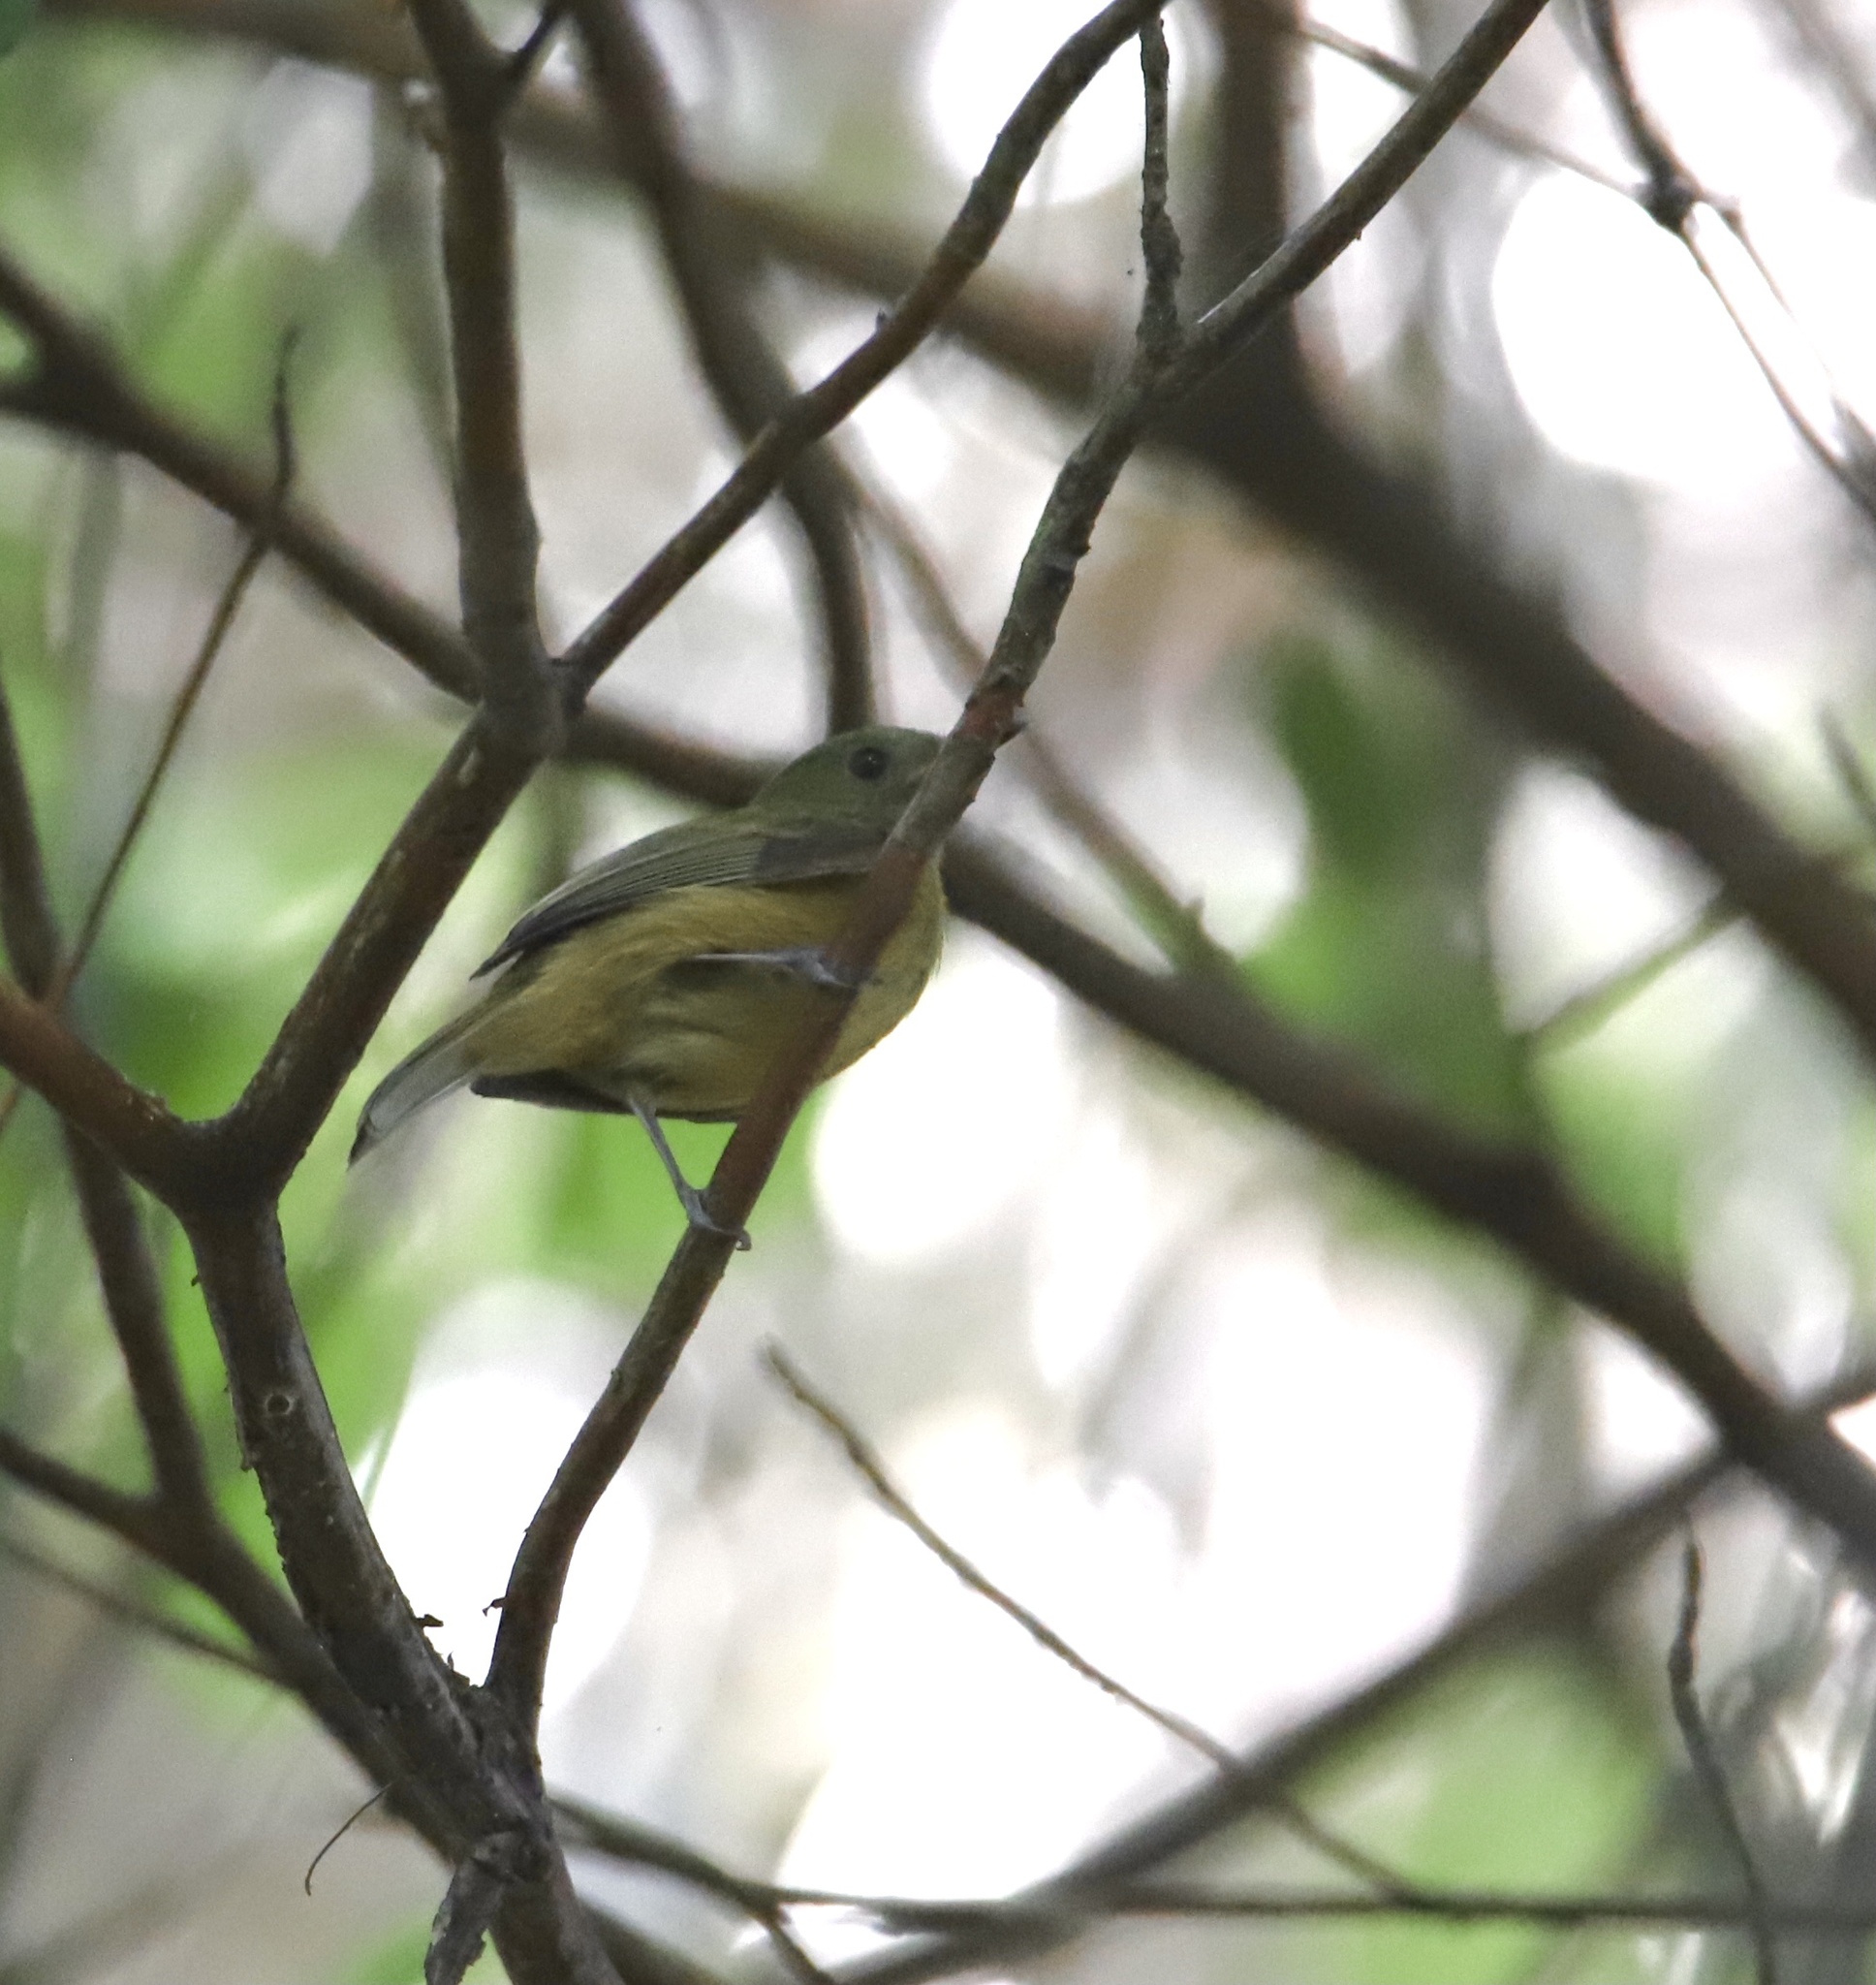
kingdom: Animalia
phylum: Chordata
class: Aves
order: Passeriformes
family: Tyrannidae
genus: Mionectes
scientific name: Mionectes oleagineus
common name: Ochre-bellied flycatcher
